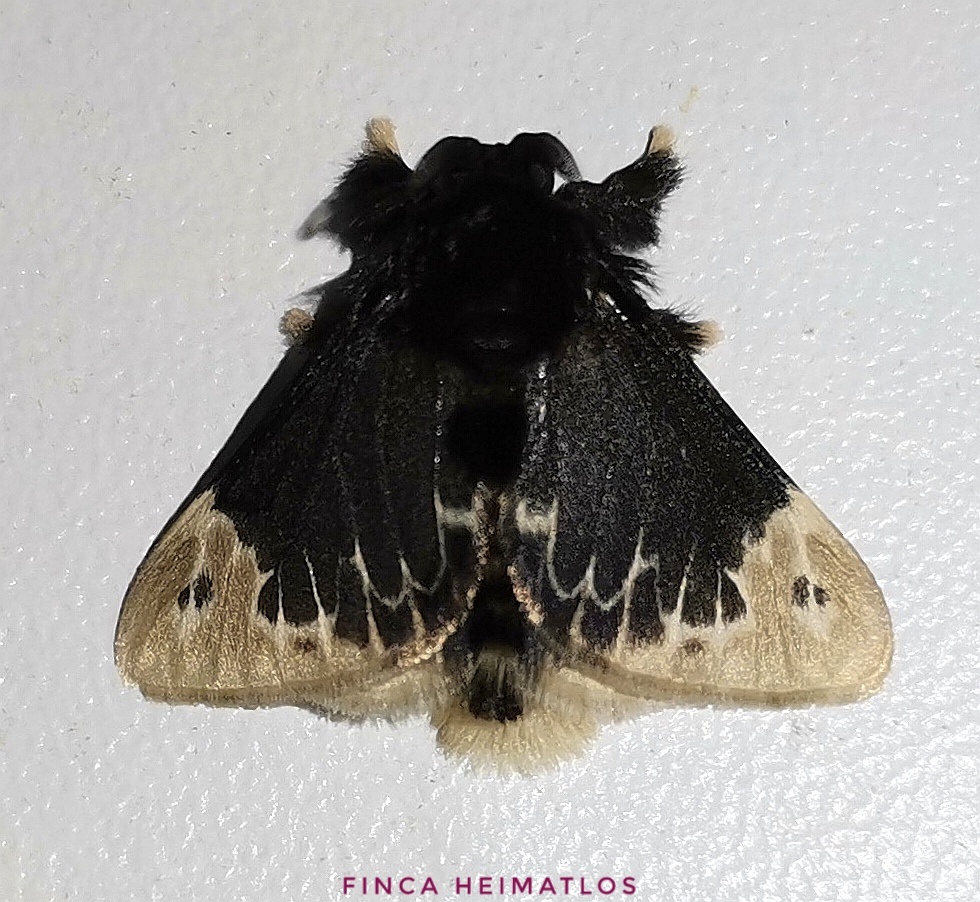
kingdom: Animalia
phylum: Arthropoda
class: Insecta
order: Lepidoptera
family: Megalopygidae
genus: Podalia
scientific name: Podalia amarga
